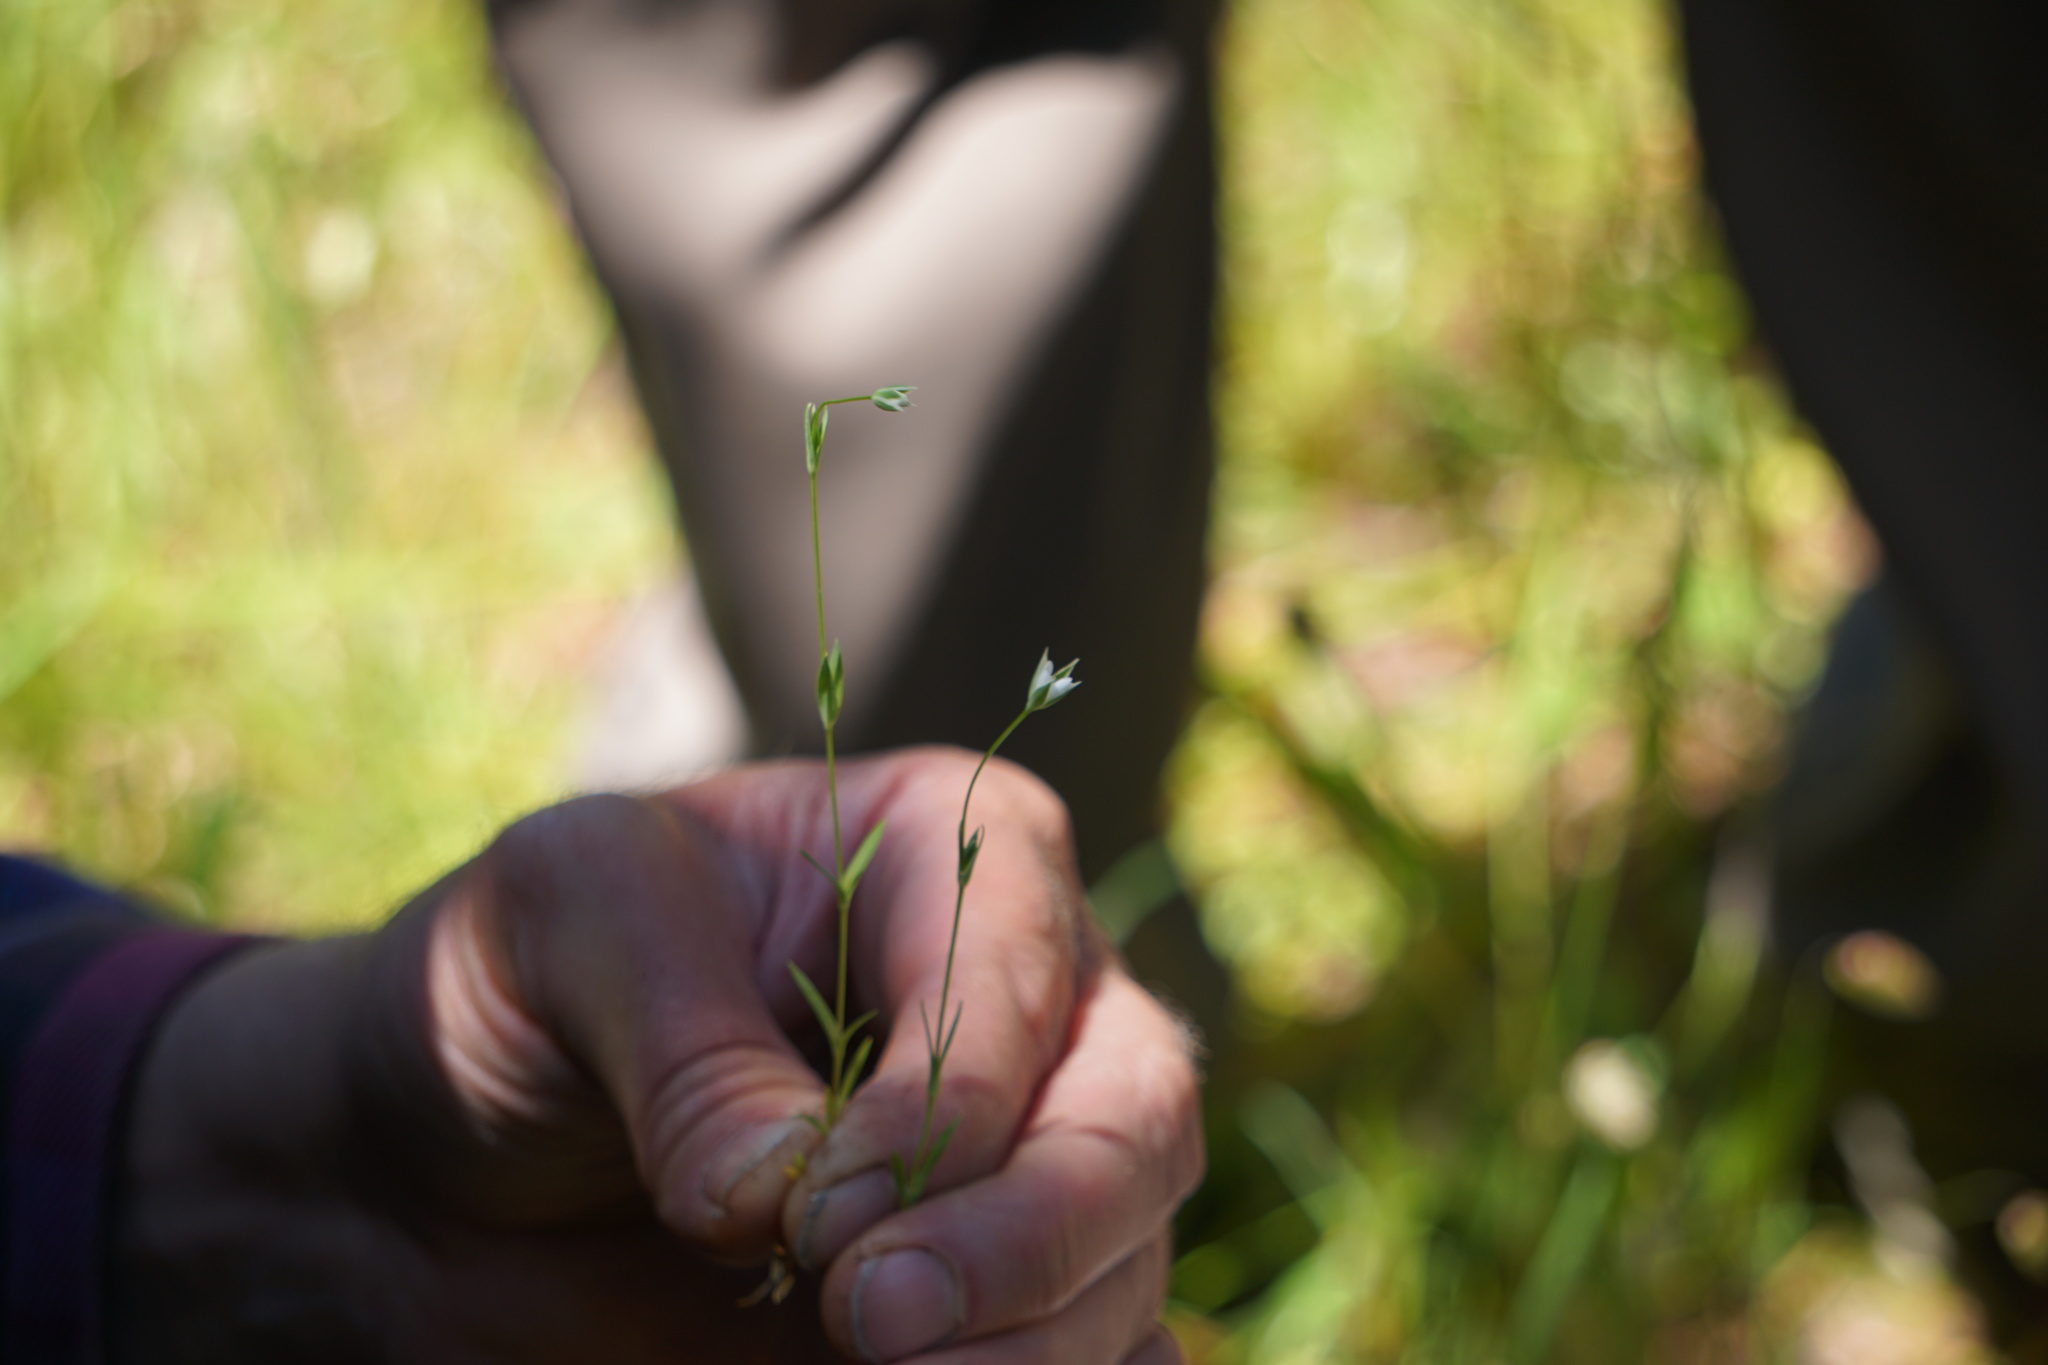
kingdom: Plantae
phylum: Tracheophyta
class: Magnoliopsida
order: Caryophyllales
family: Caryophyllaceae
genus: Moenchia
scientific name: Moenchia erecta
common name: Upright chickweed
